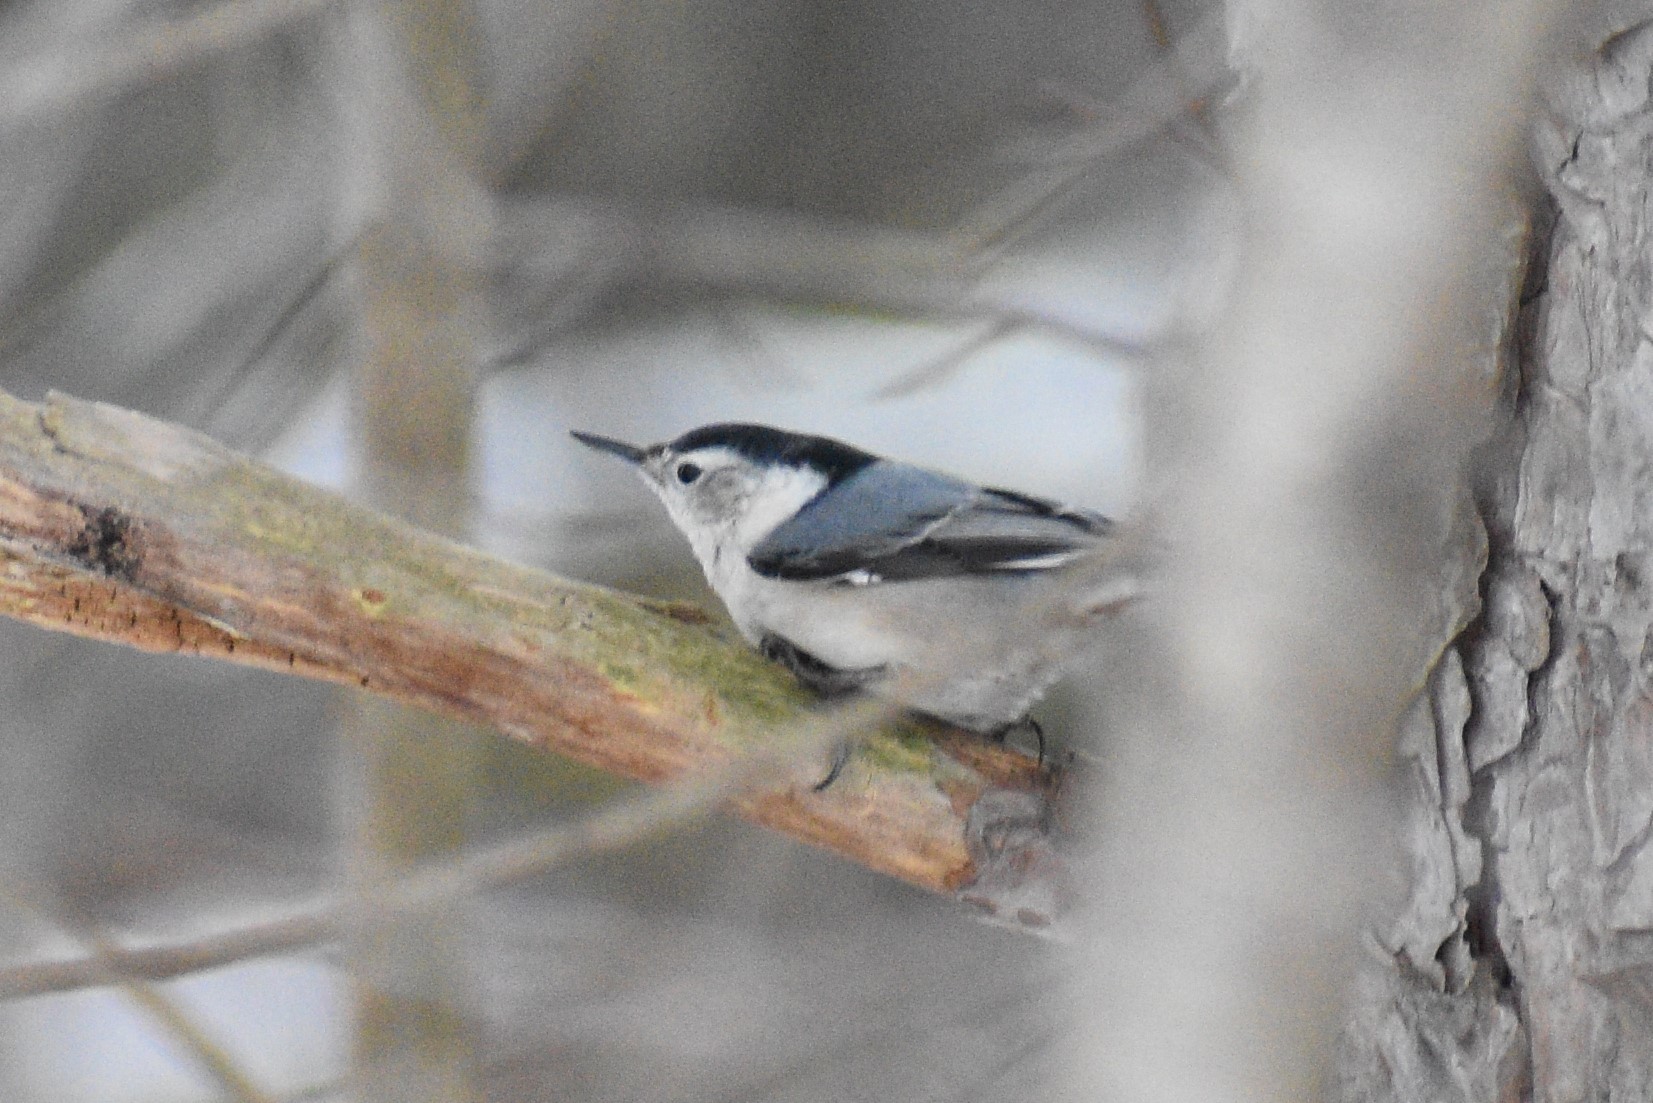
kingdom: Animalia
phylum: Chordata
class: Aves
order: Passeriformes
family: Sittidae
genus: Sitta
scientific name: Sitta carolinensis
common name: White-breasted nuthatch
